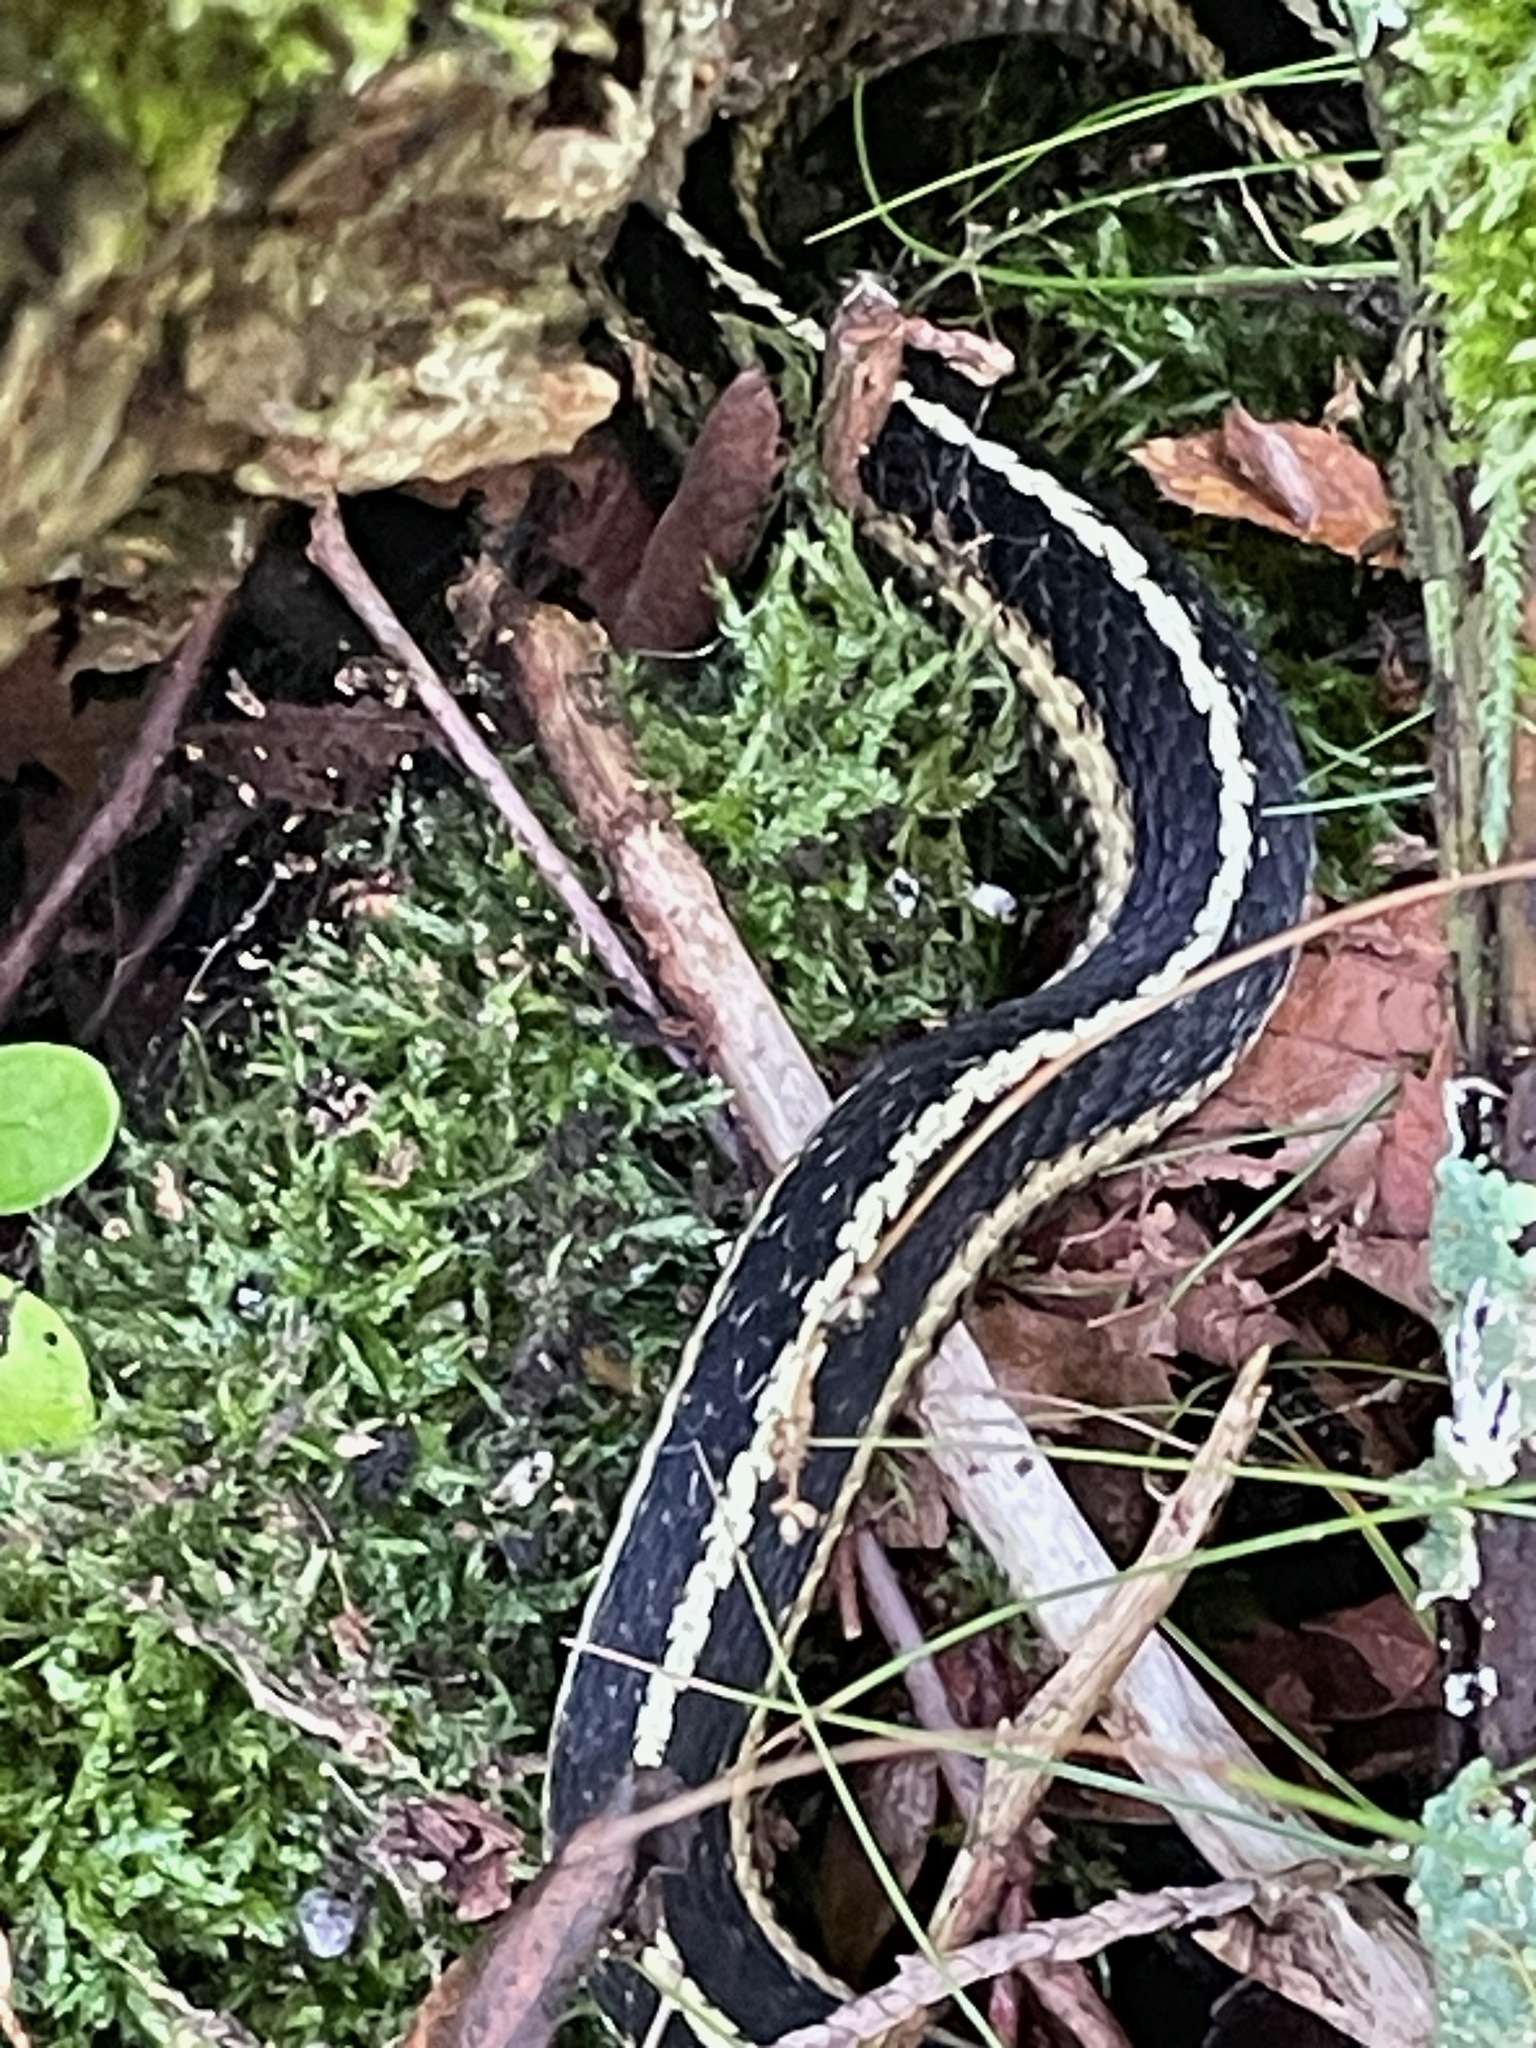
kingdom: Animalia
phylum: Chordata
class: Squamata
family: Colubridae
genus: Thamnophis
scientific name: Thamnophis sirtalis
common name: Common garter snake
